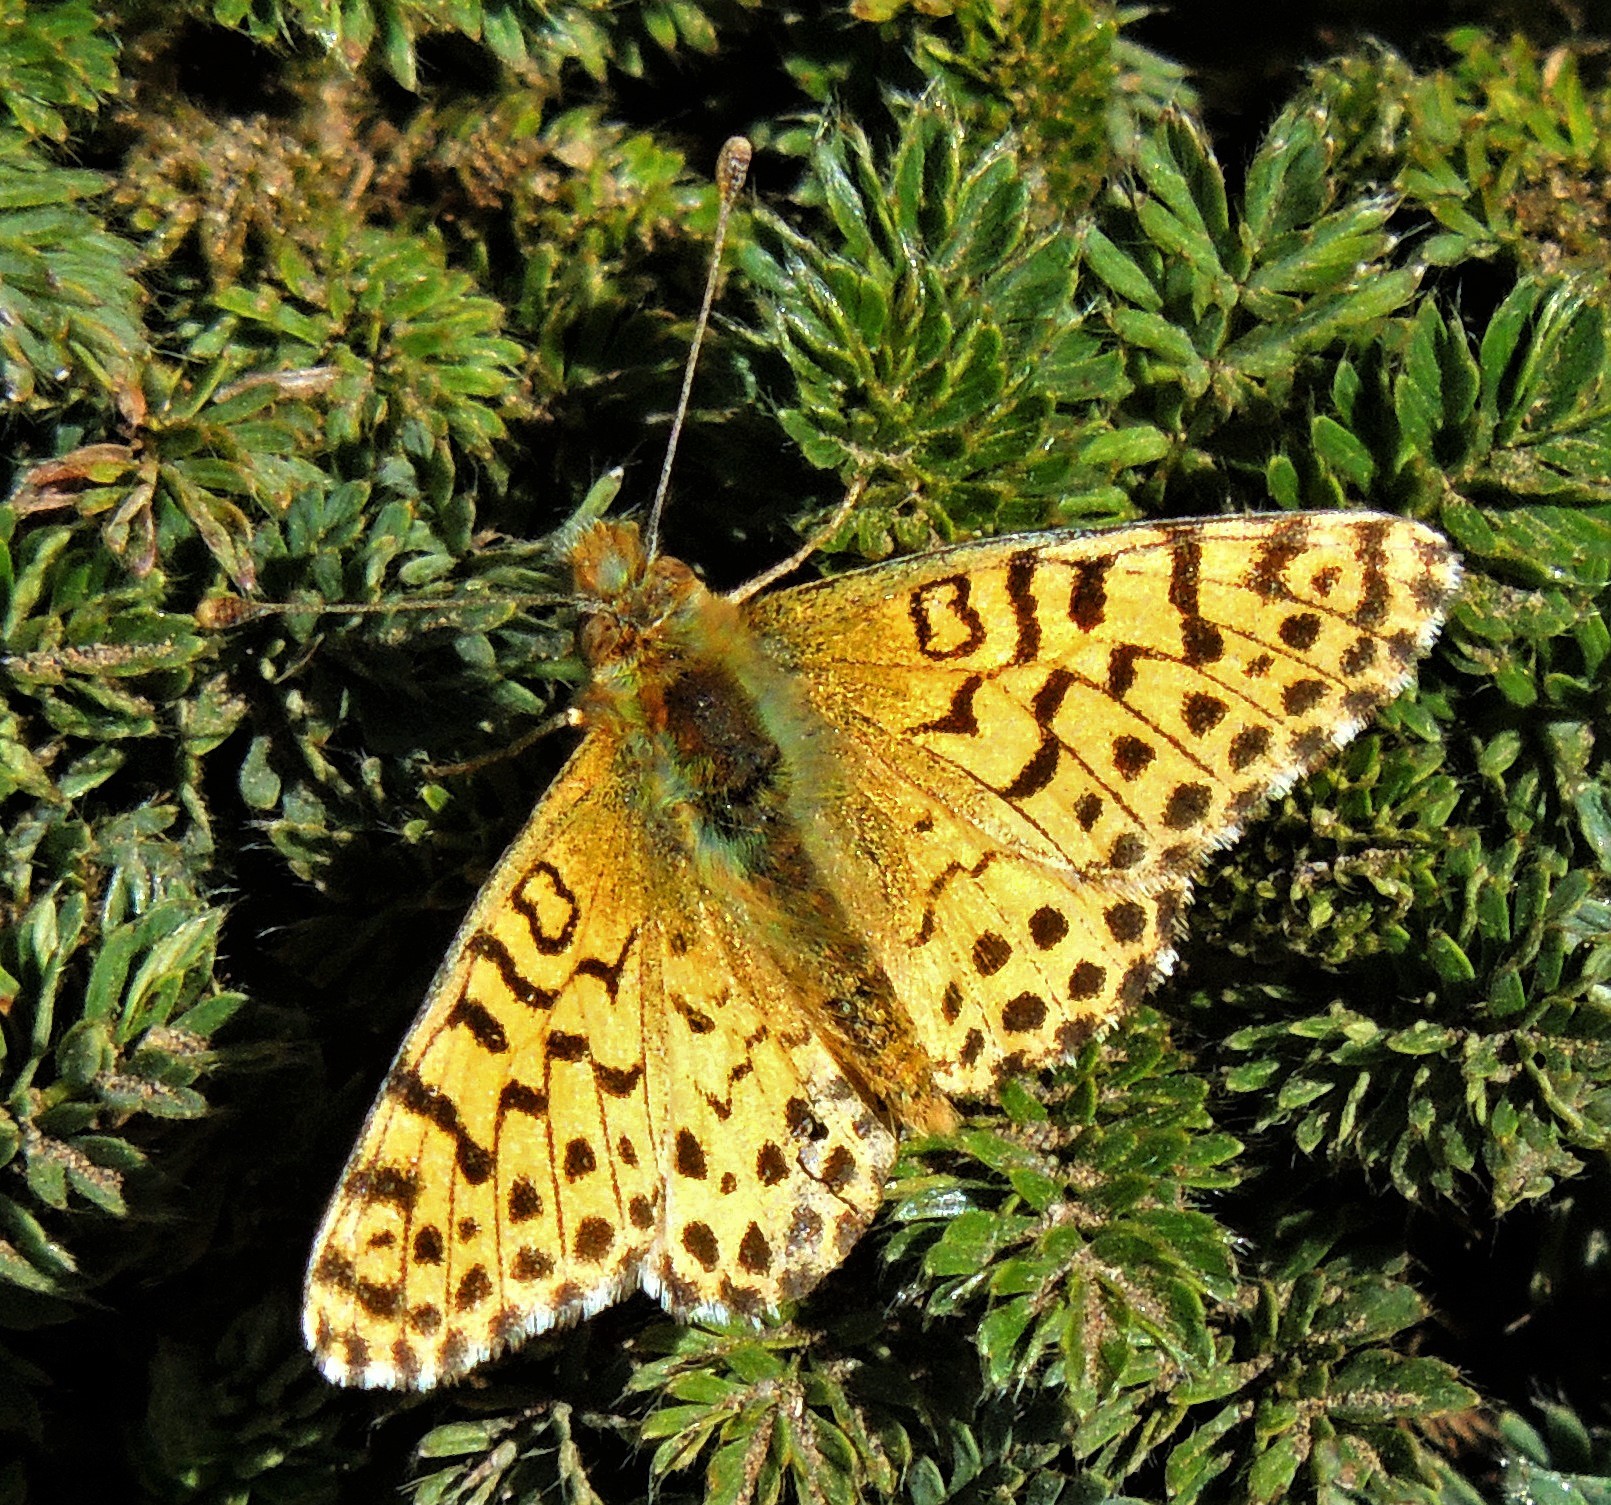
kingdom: Animalia
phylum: Arthropoda
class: Insecta
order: Lepidoptera
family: Nymphalidae
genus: Issoria
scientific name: Issoria Yramea lathonoides
